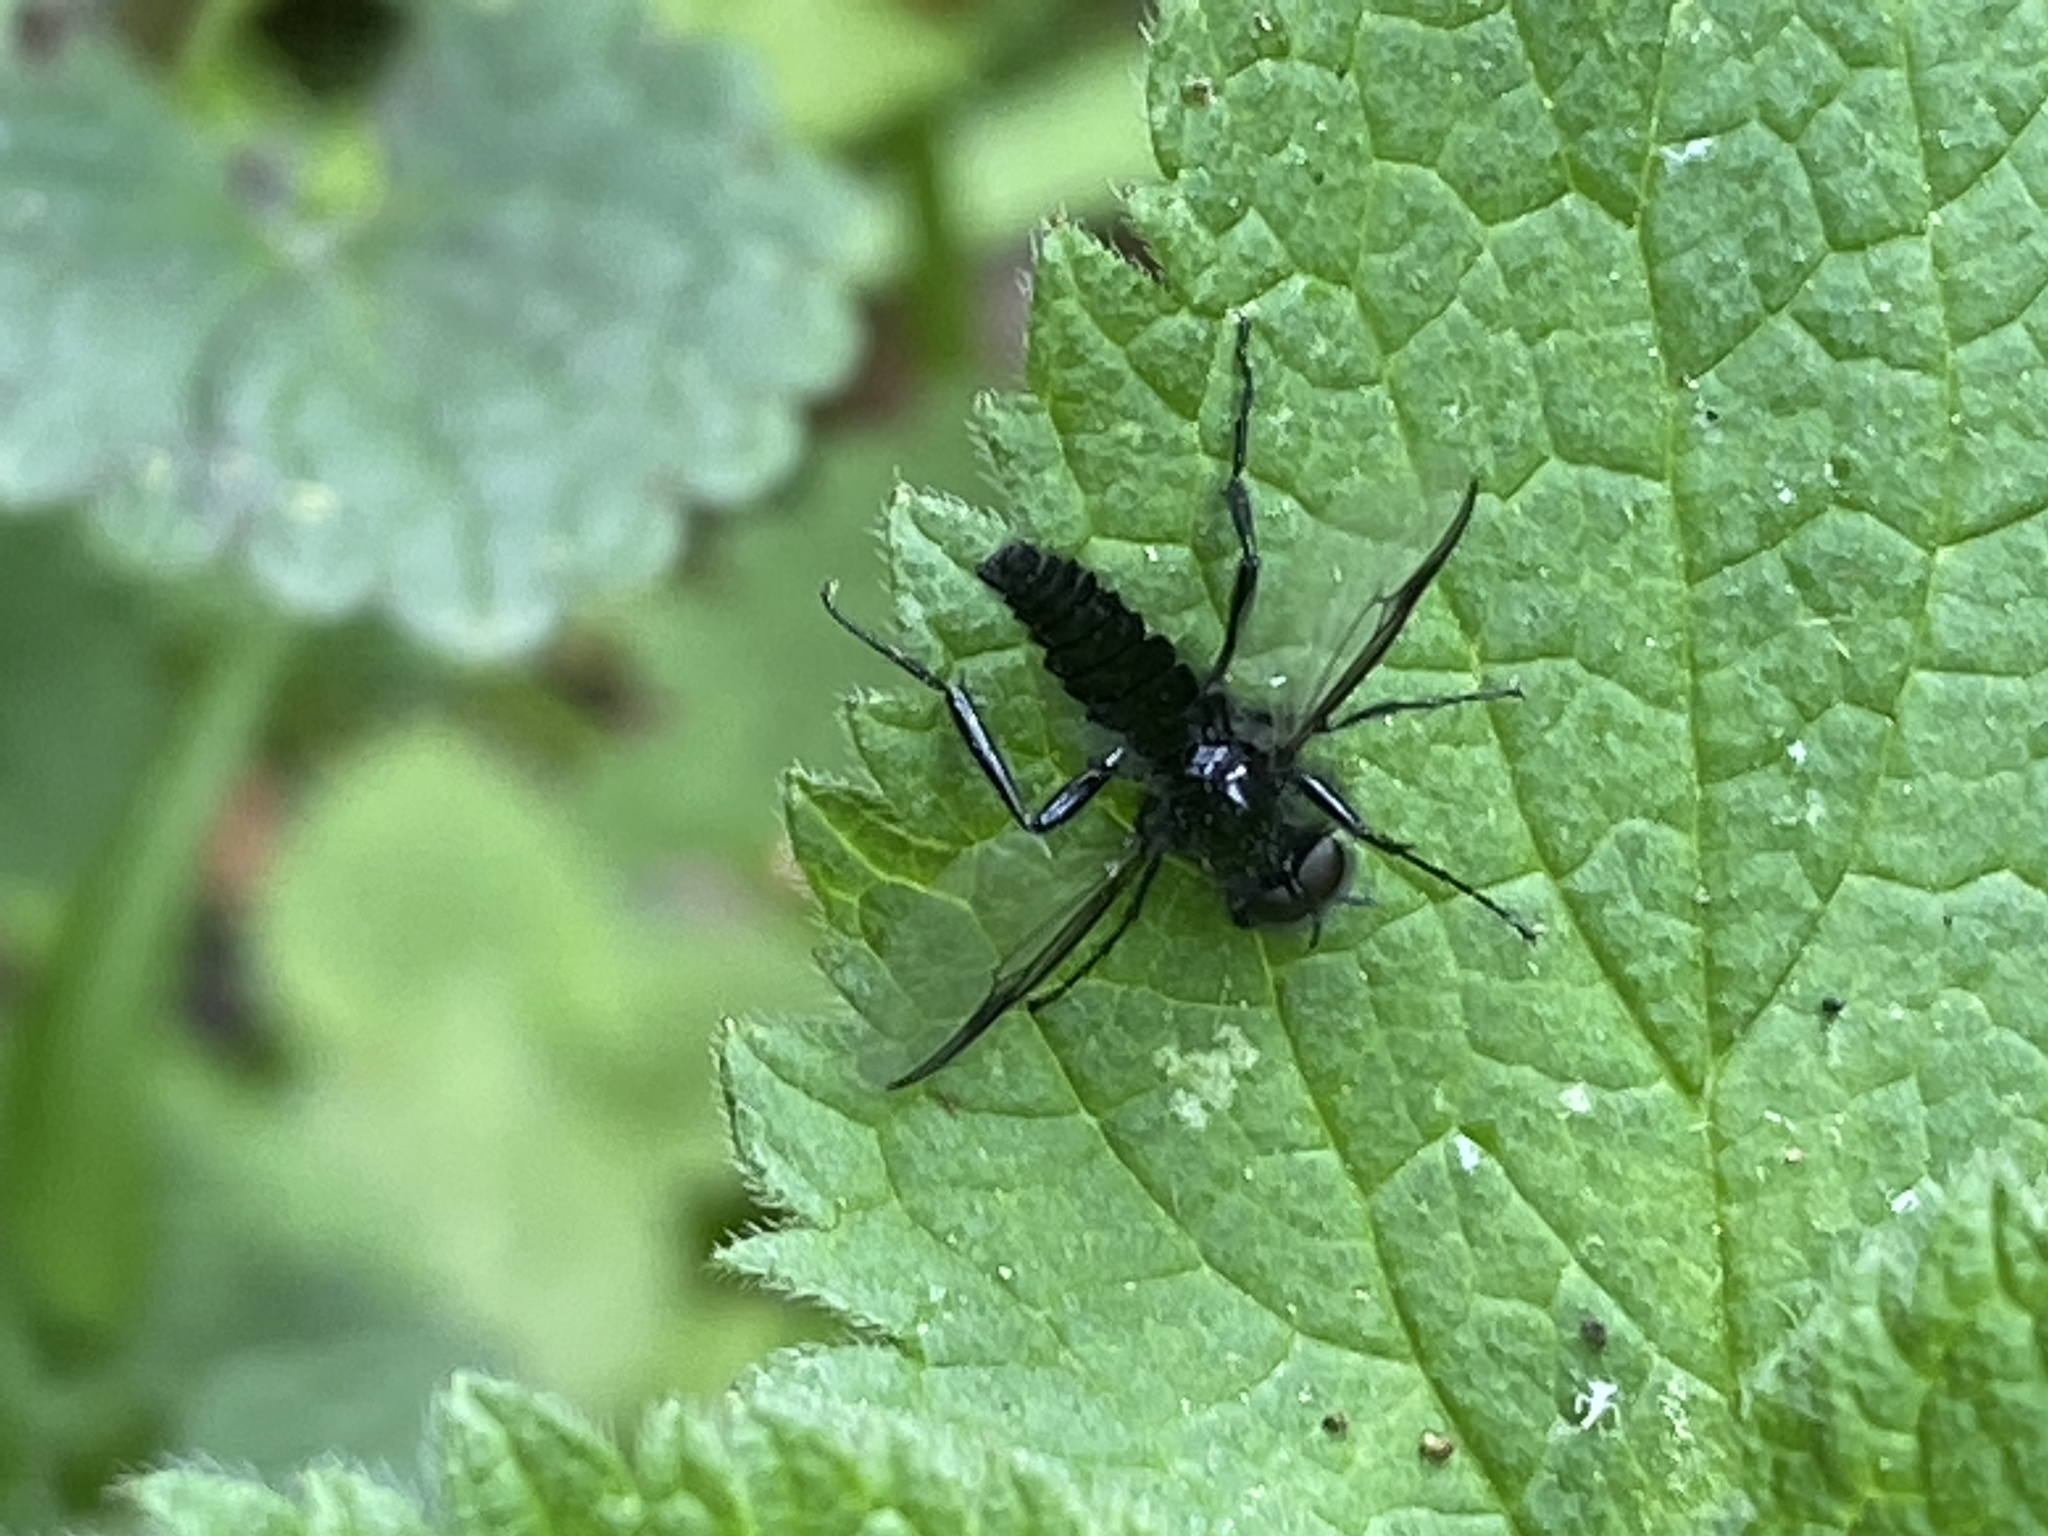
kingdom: Animalia
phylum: Arthropoda
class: Insecta
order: Diptera
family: Bibionidae
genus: Bibio
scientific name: Bibio marci
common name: St marks fly
